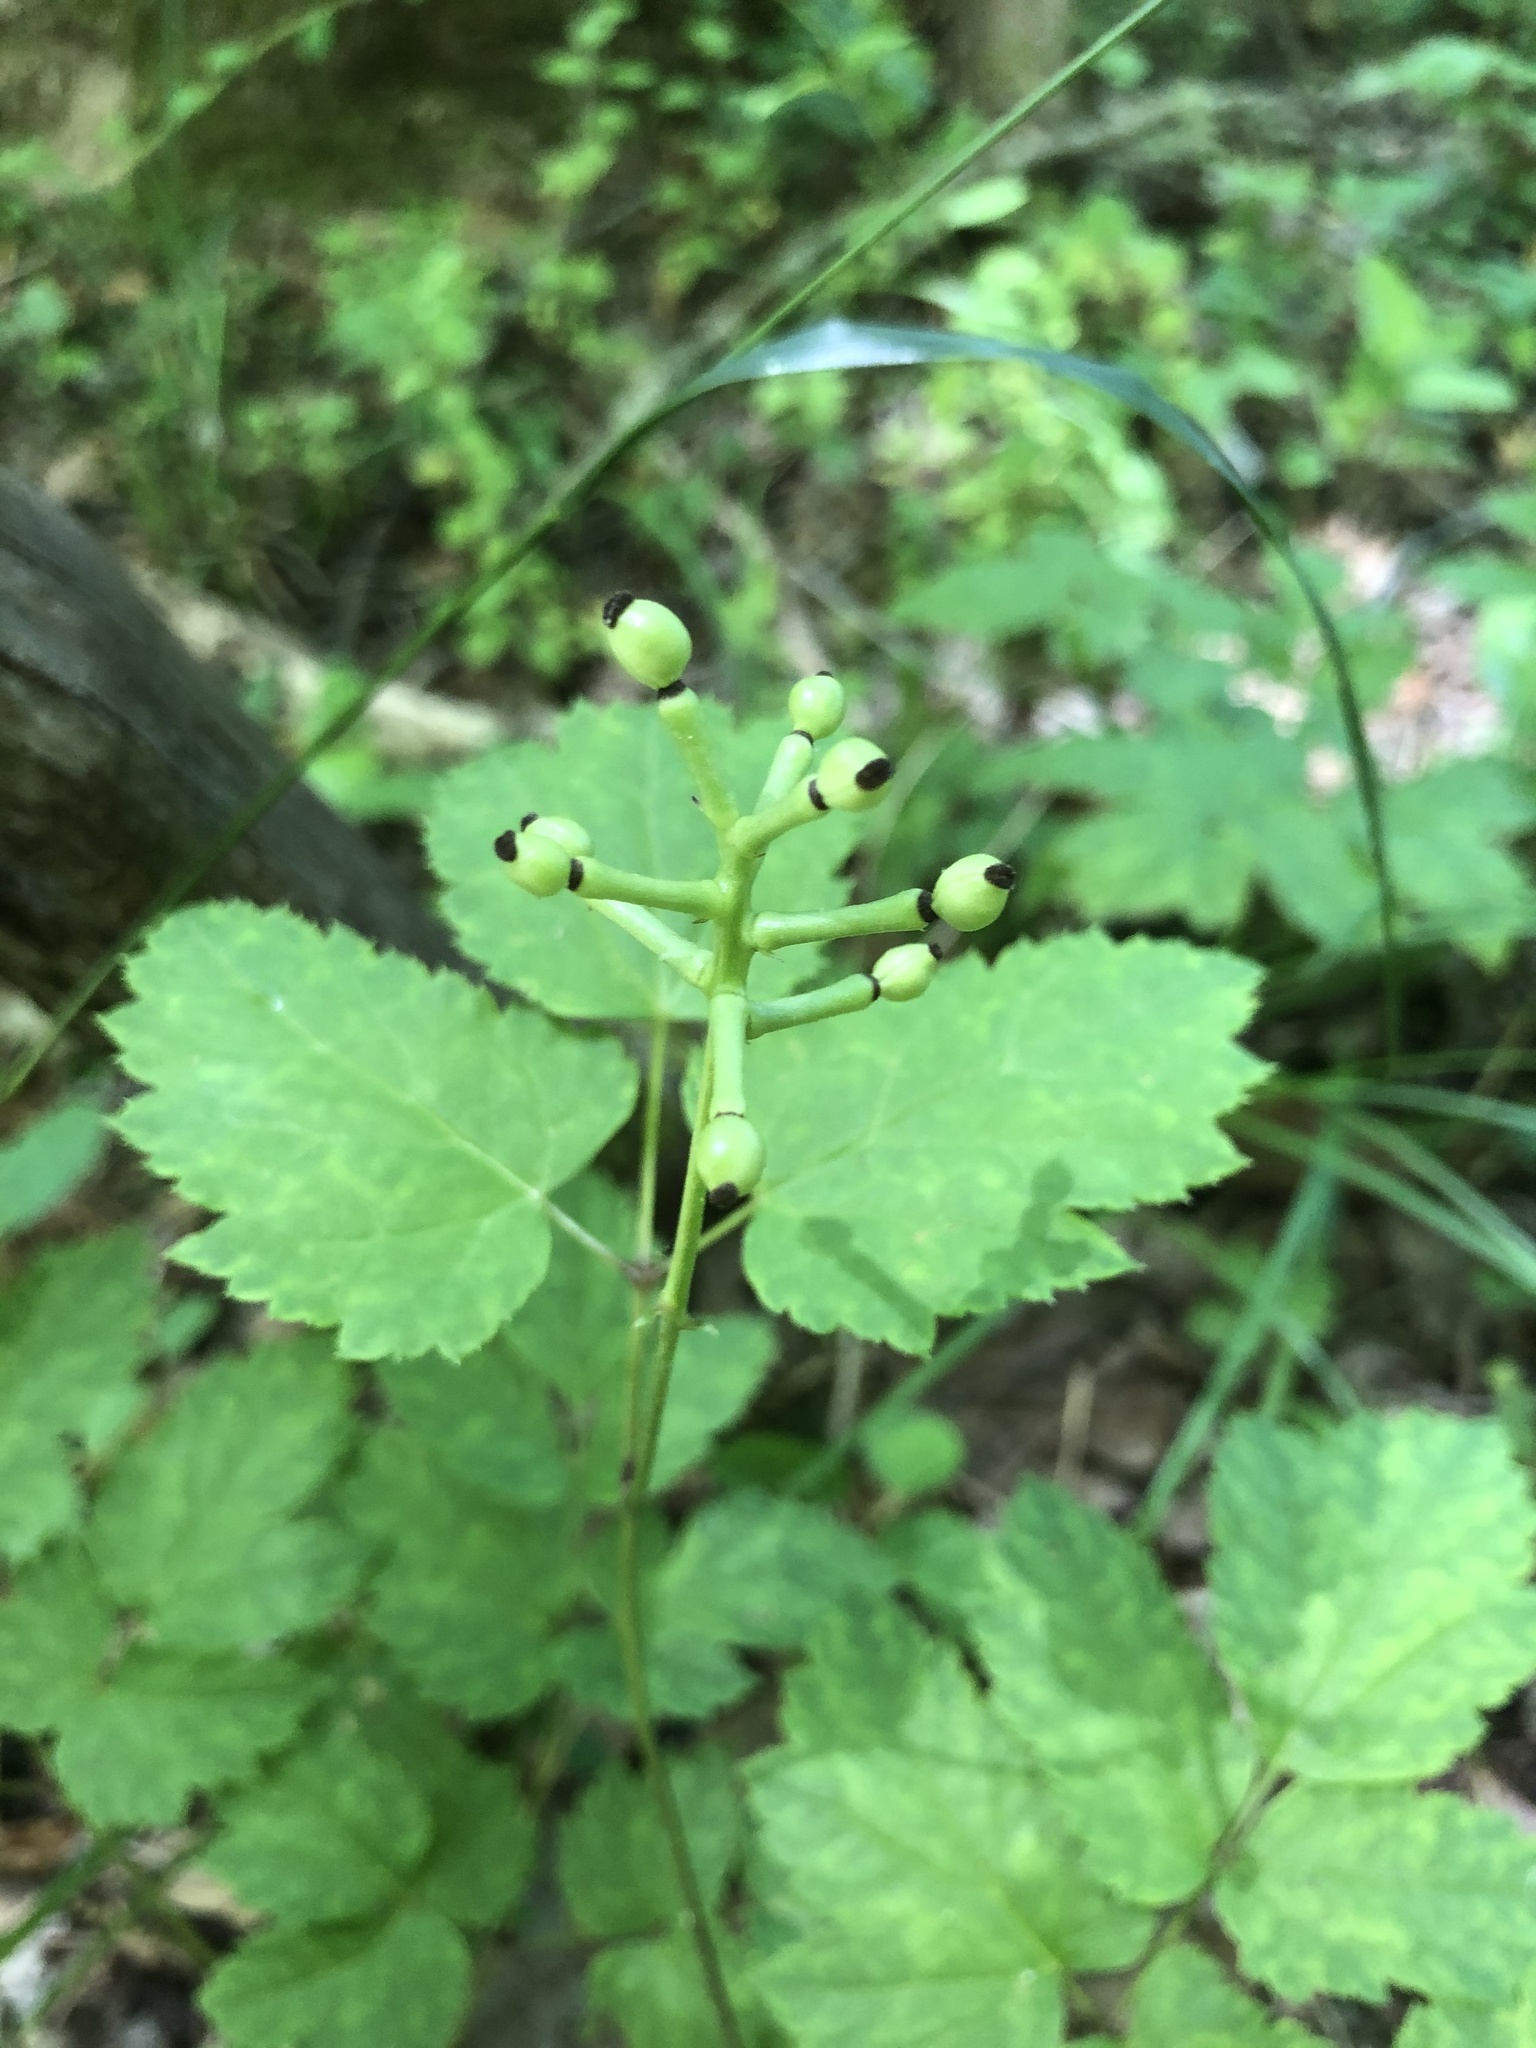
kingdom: Plantae
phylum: Tracheophyta
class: Magnoliopsida
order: Ranunculales
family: Ranunculaceae
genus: Actaea
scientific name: Actaea pachypoda
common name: Doll's-eyes
